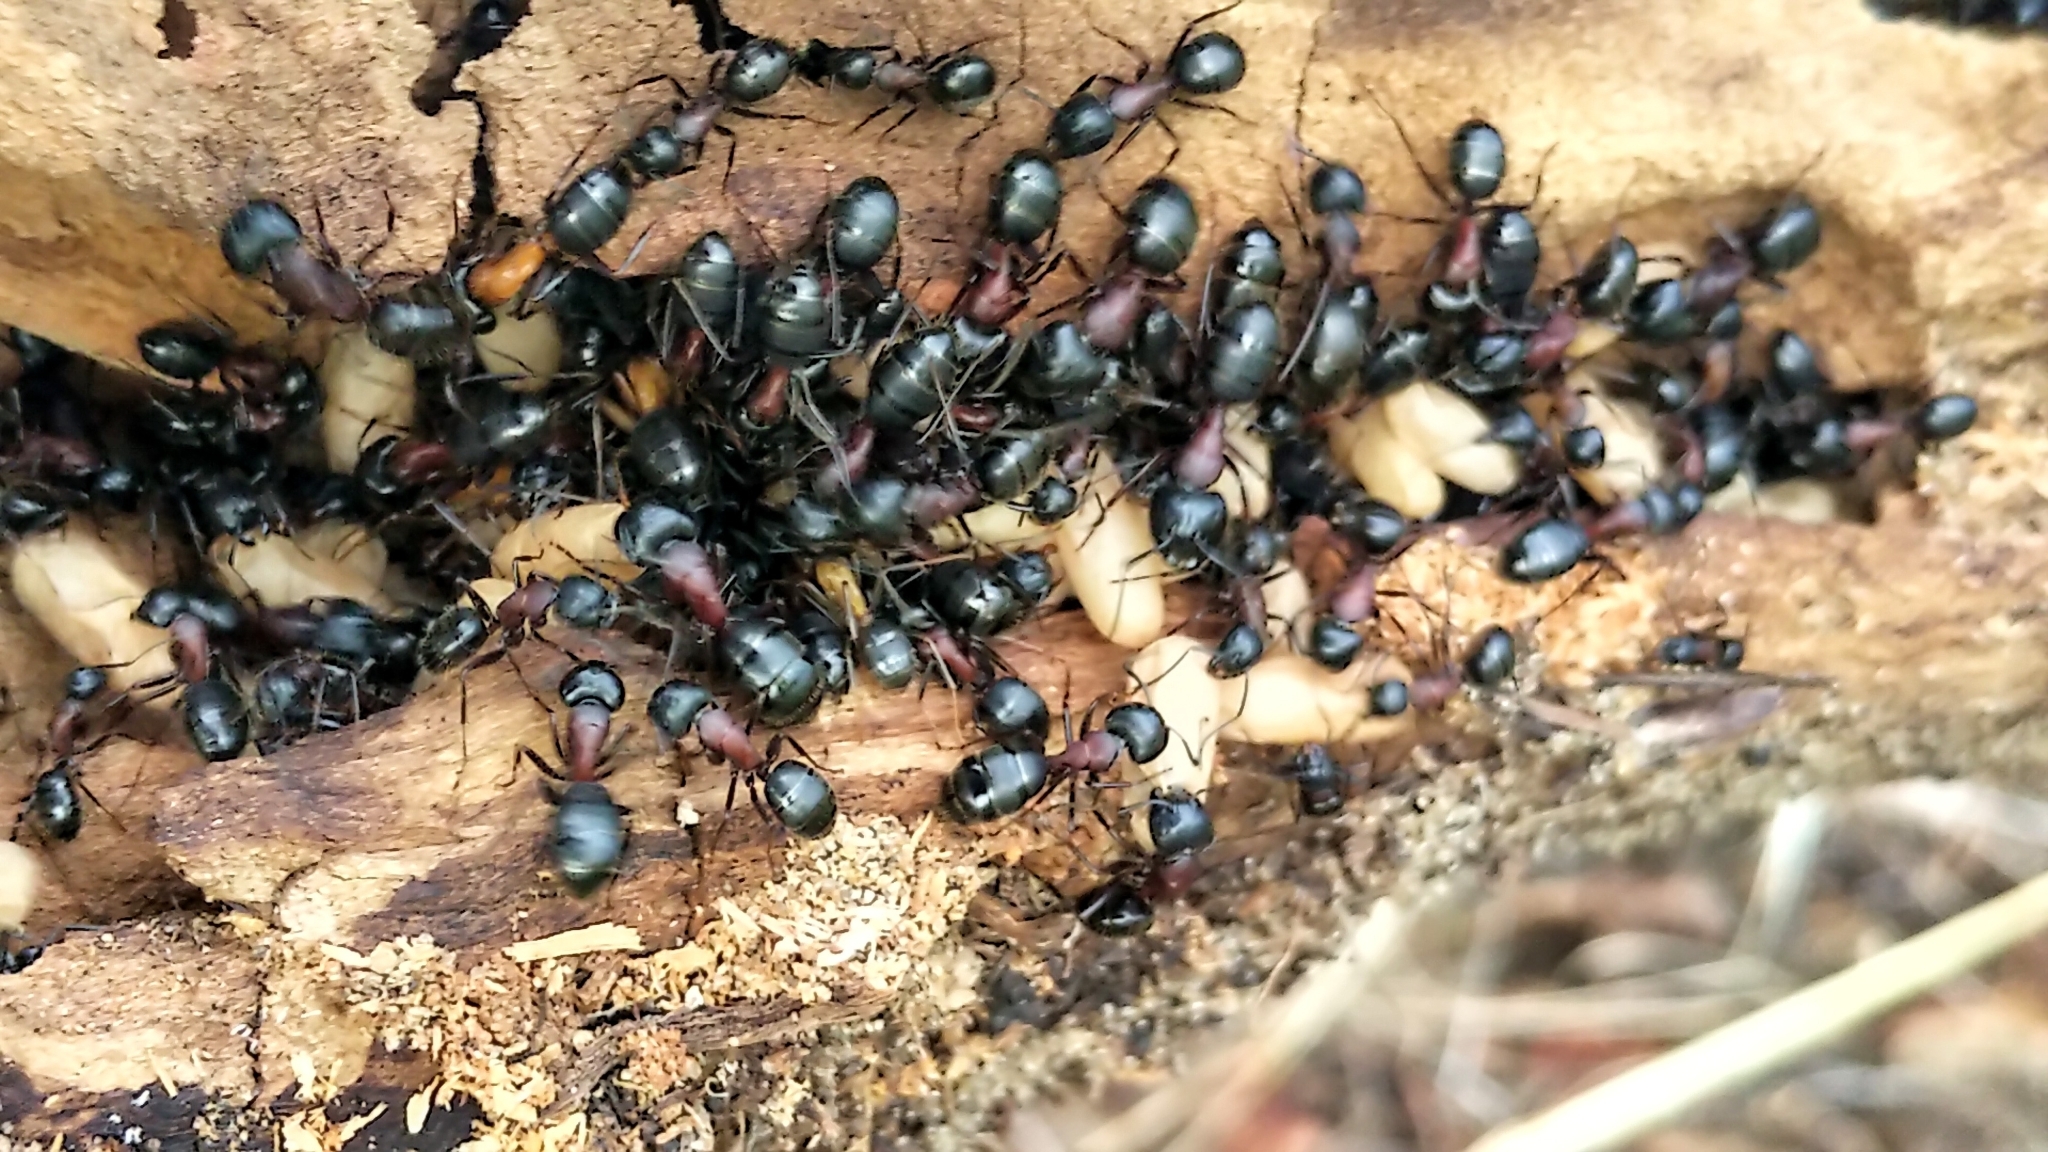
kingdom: Animalia
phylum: Arthropoda
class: Insecta
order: Hymenoptera
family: Formicidae
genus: Camponotus
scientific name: Camponotus novaeboracensis
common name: New york carpenter ant
